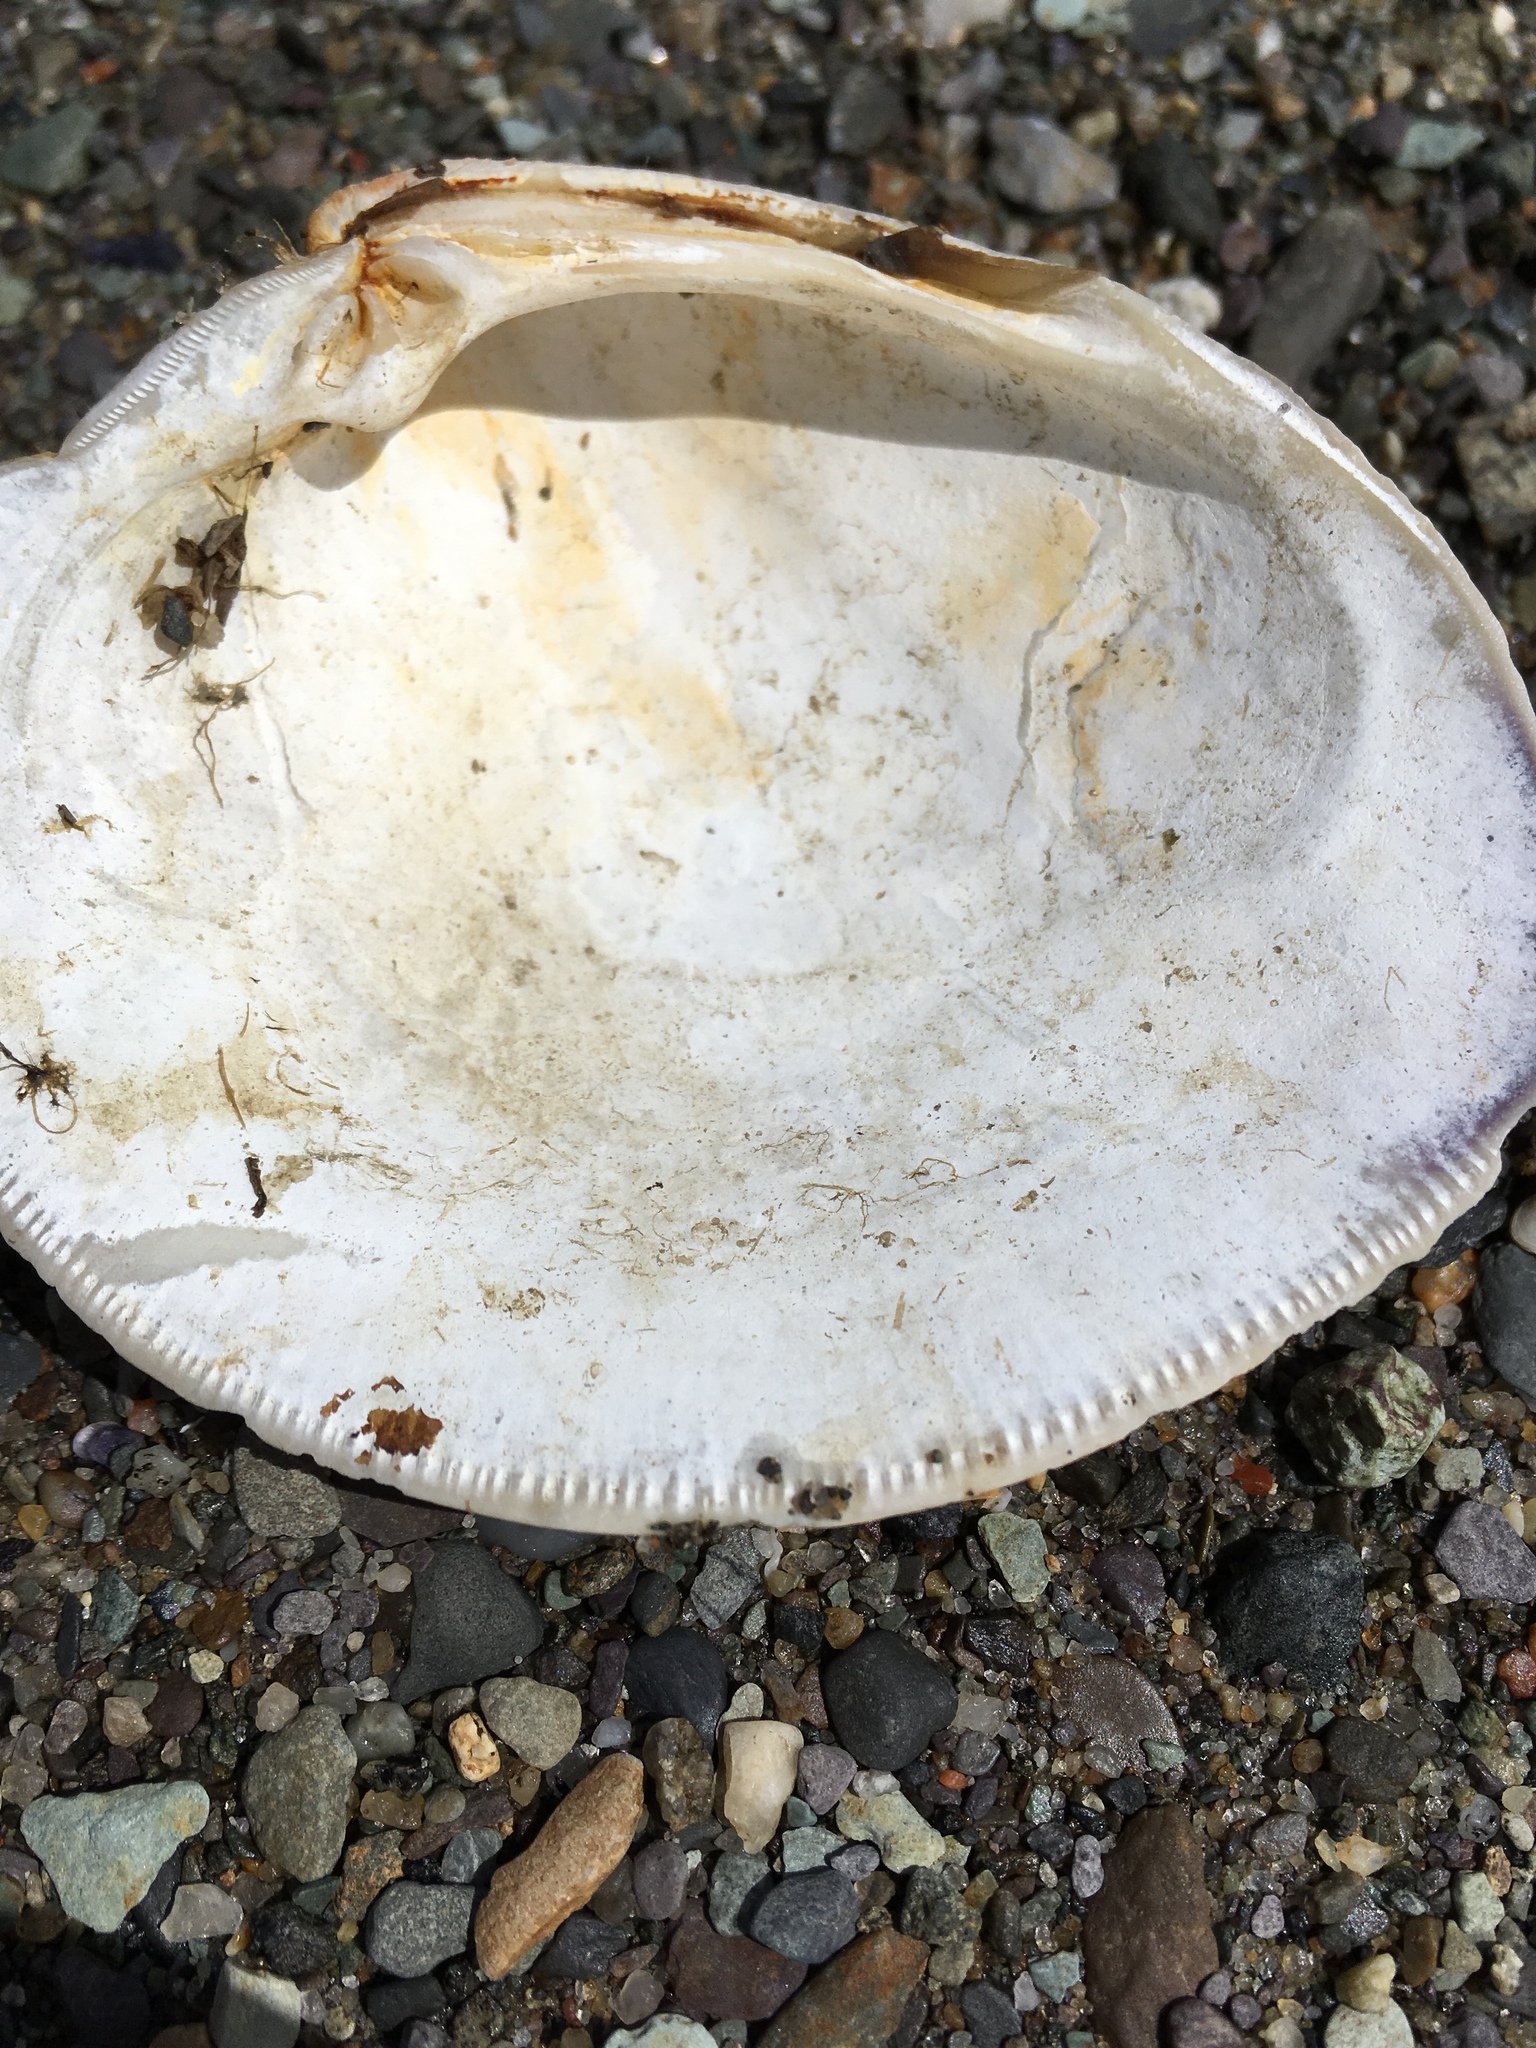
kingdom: Animalia
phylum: Mollusca
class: Bivalvia
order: Venerida
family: Veneridae
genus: Mercenaria
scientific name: Mercenaria mercenaria
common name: American hard-shelled clam
